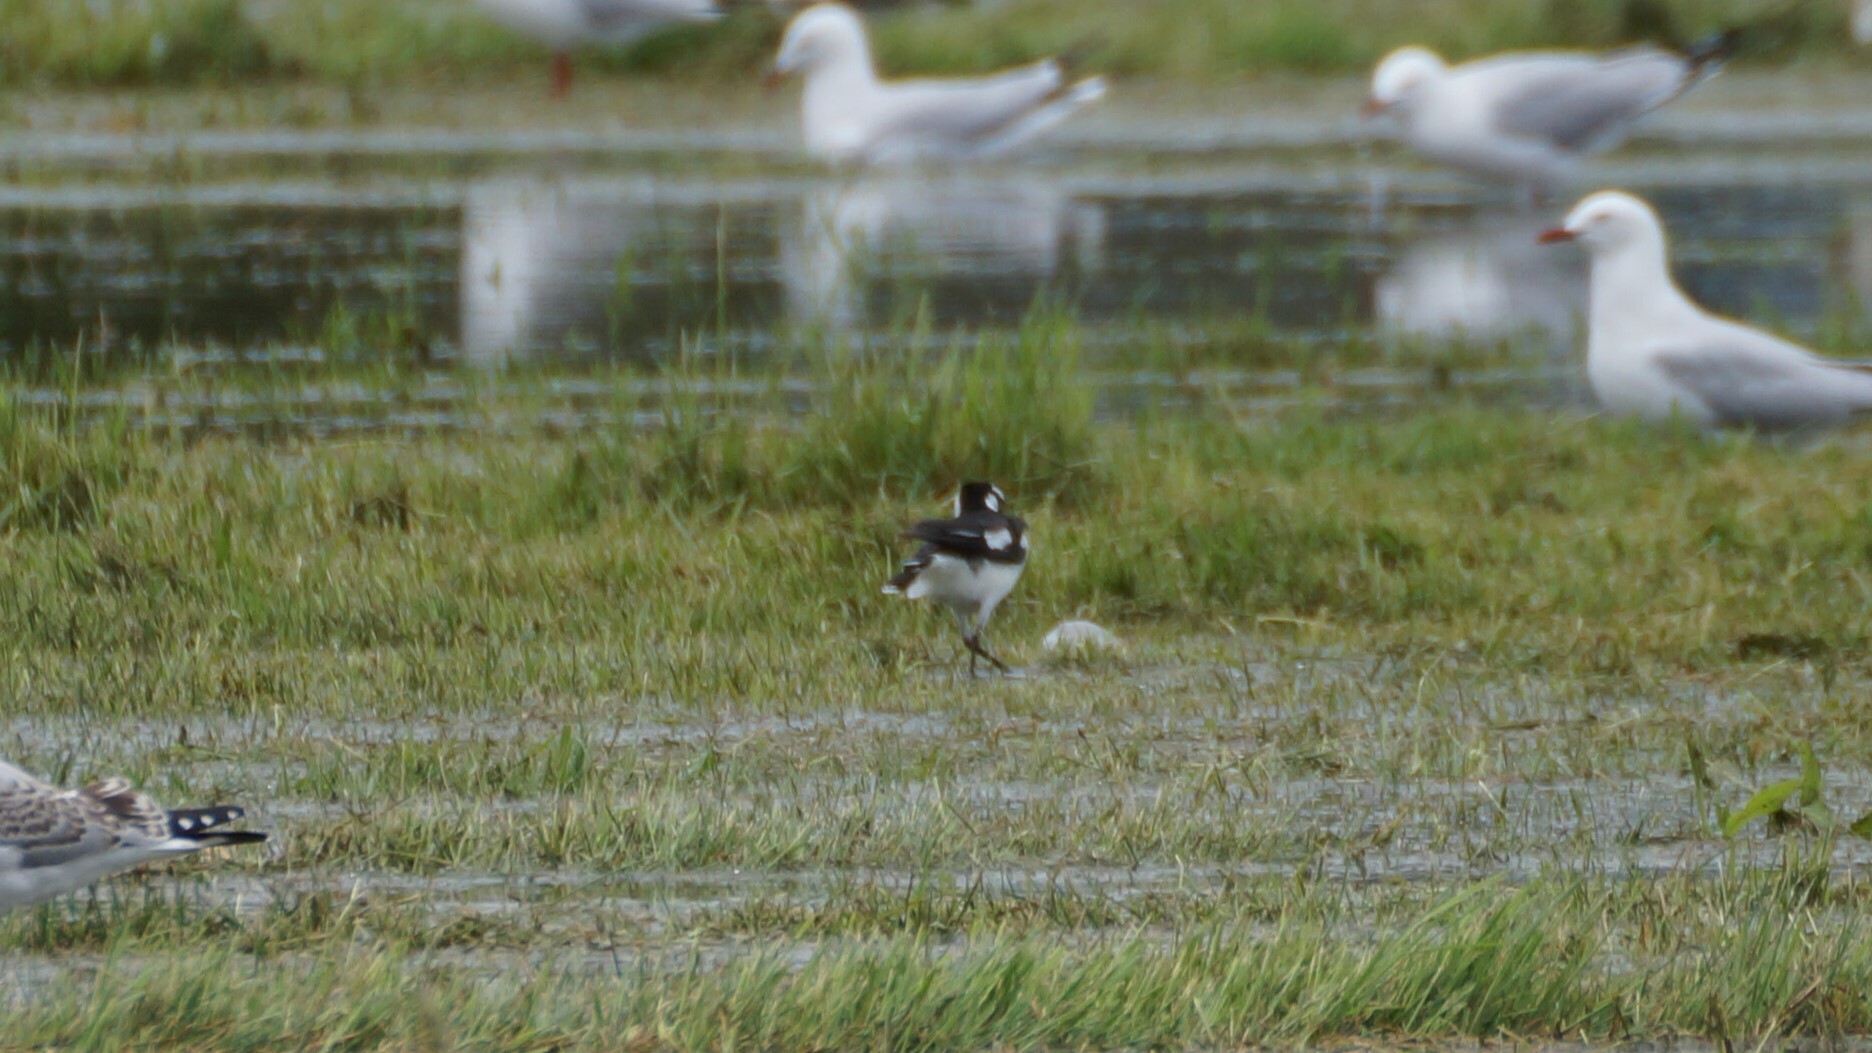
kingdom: Animalia
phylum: Chordata
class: Aves
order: Passeriformes
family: Monarchidae
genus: Grallina
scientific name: Grallina cyanoleuca
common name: Magpie-lark
